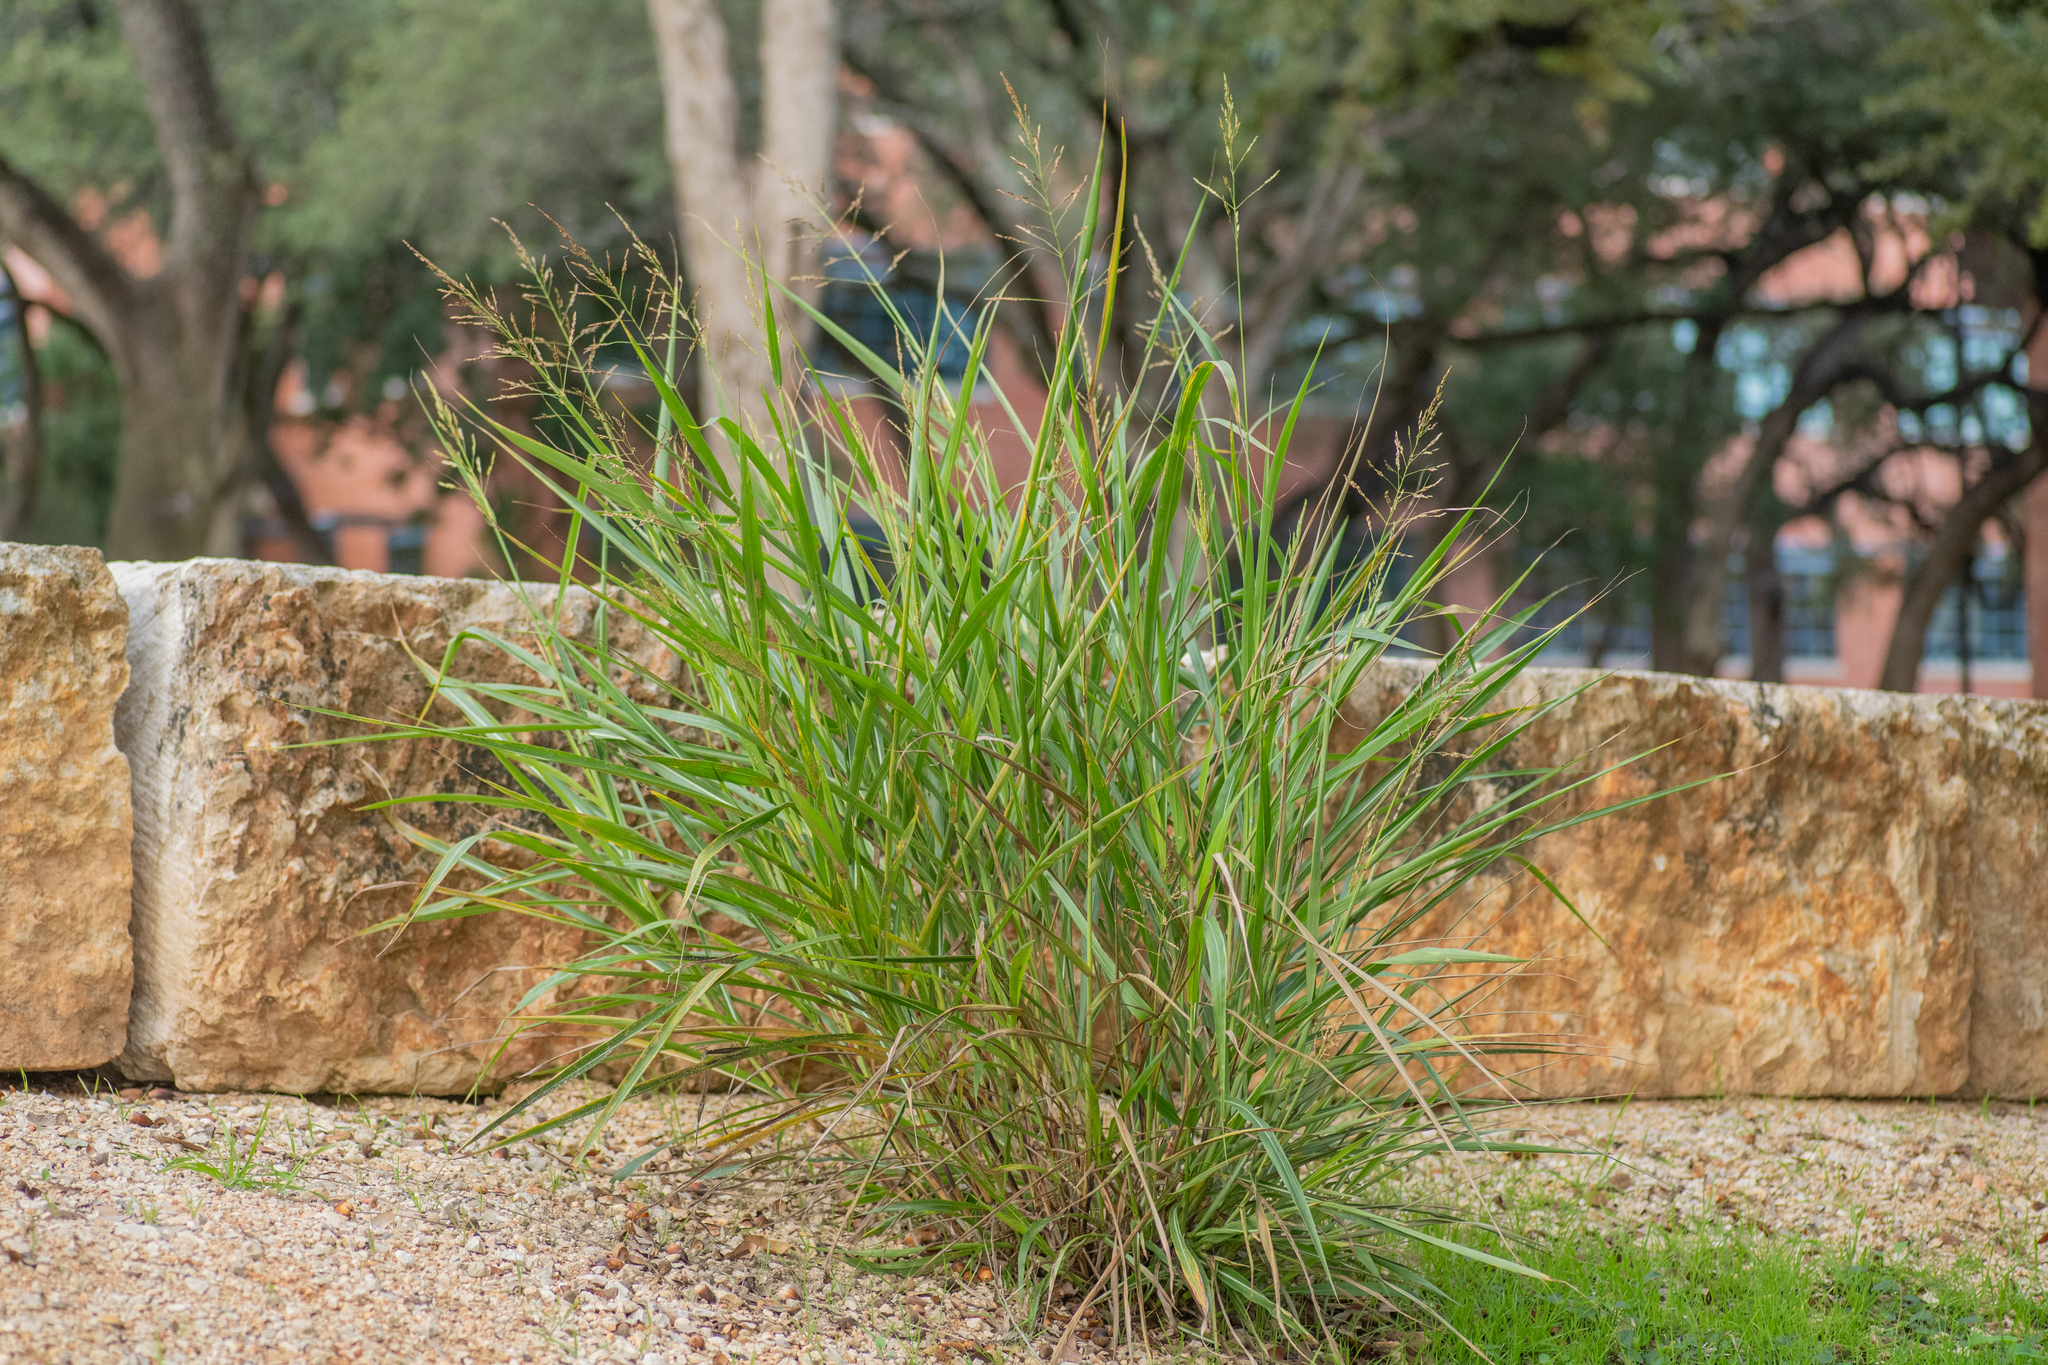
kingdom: Plantae
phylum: Tracheophyta
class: Liliopsida
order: Poales
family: Poaceae
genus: Sorghum
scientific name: Sorghum halepense
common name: Johnson-grass
